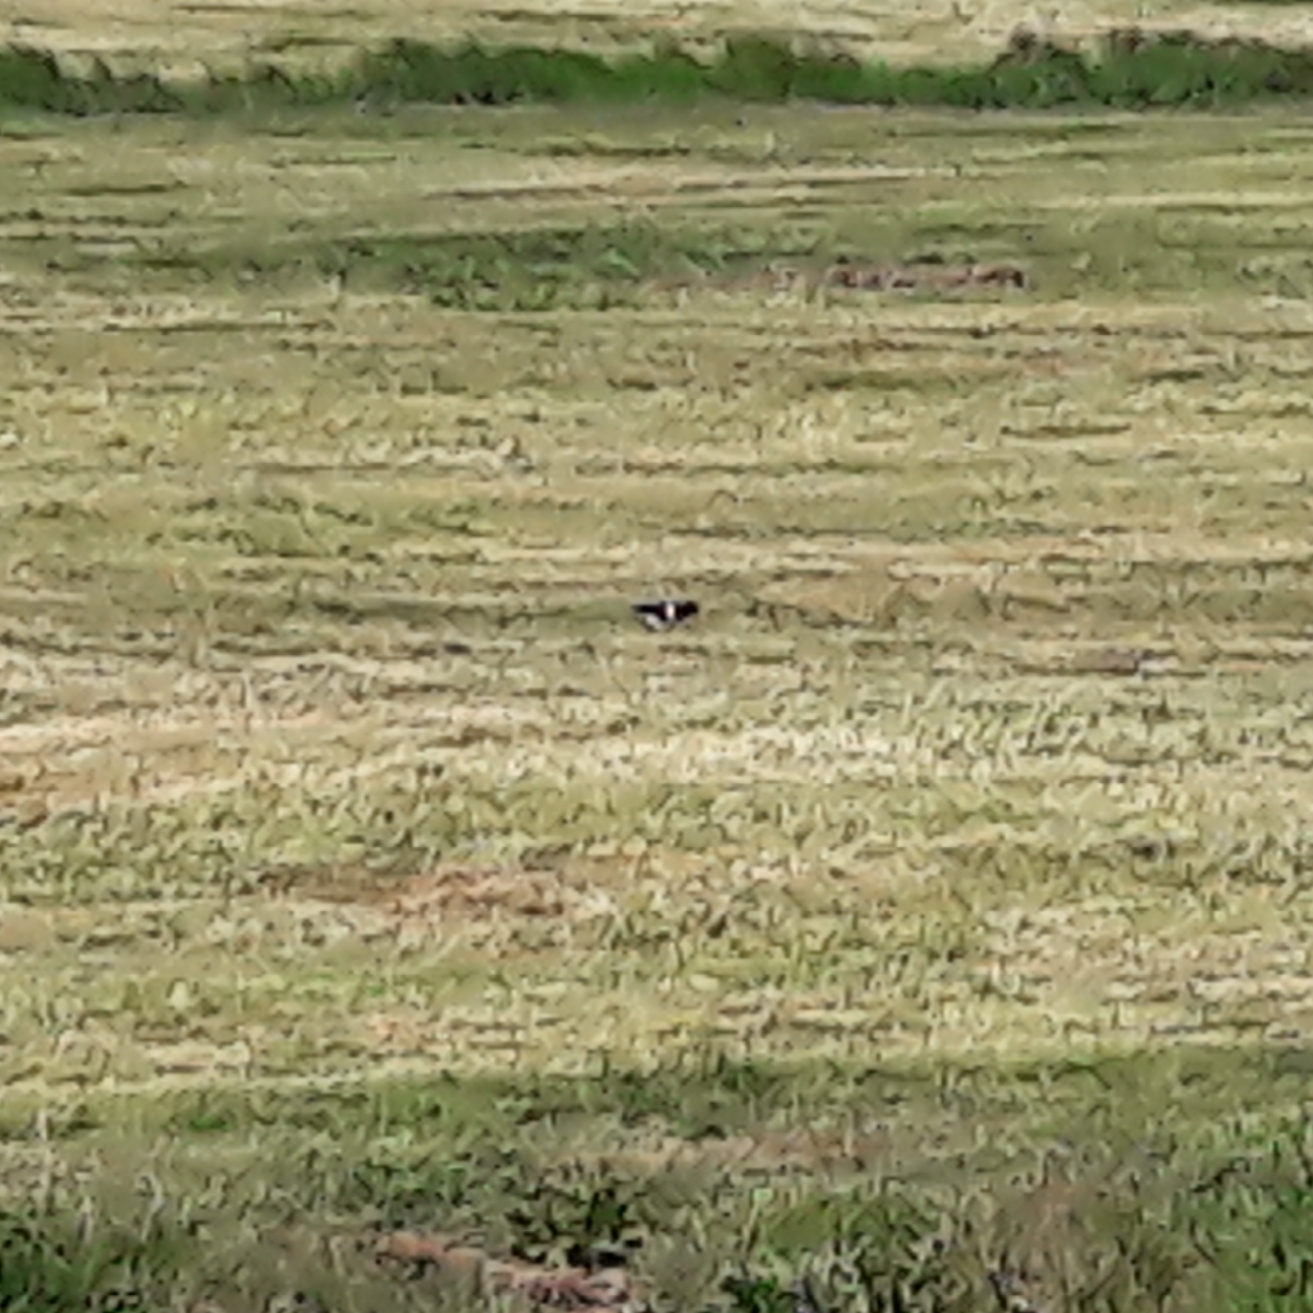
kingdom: Animalia
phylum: Chordata
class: Aves
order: Charadriiformes
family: Haematopodidae
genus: Haematopus
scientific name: Haematopus ostralegus
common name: Eurasian oystercatcher
